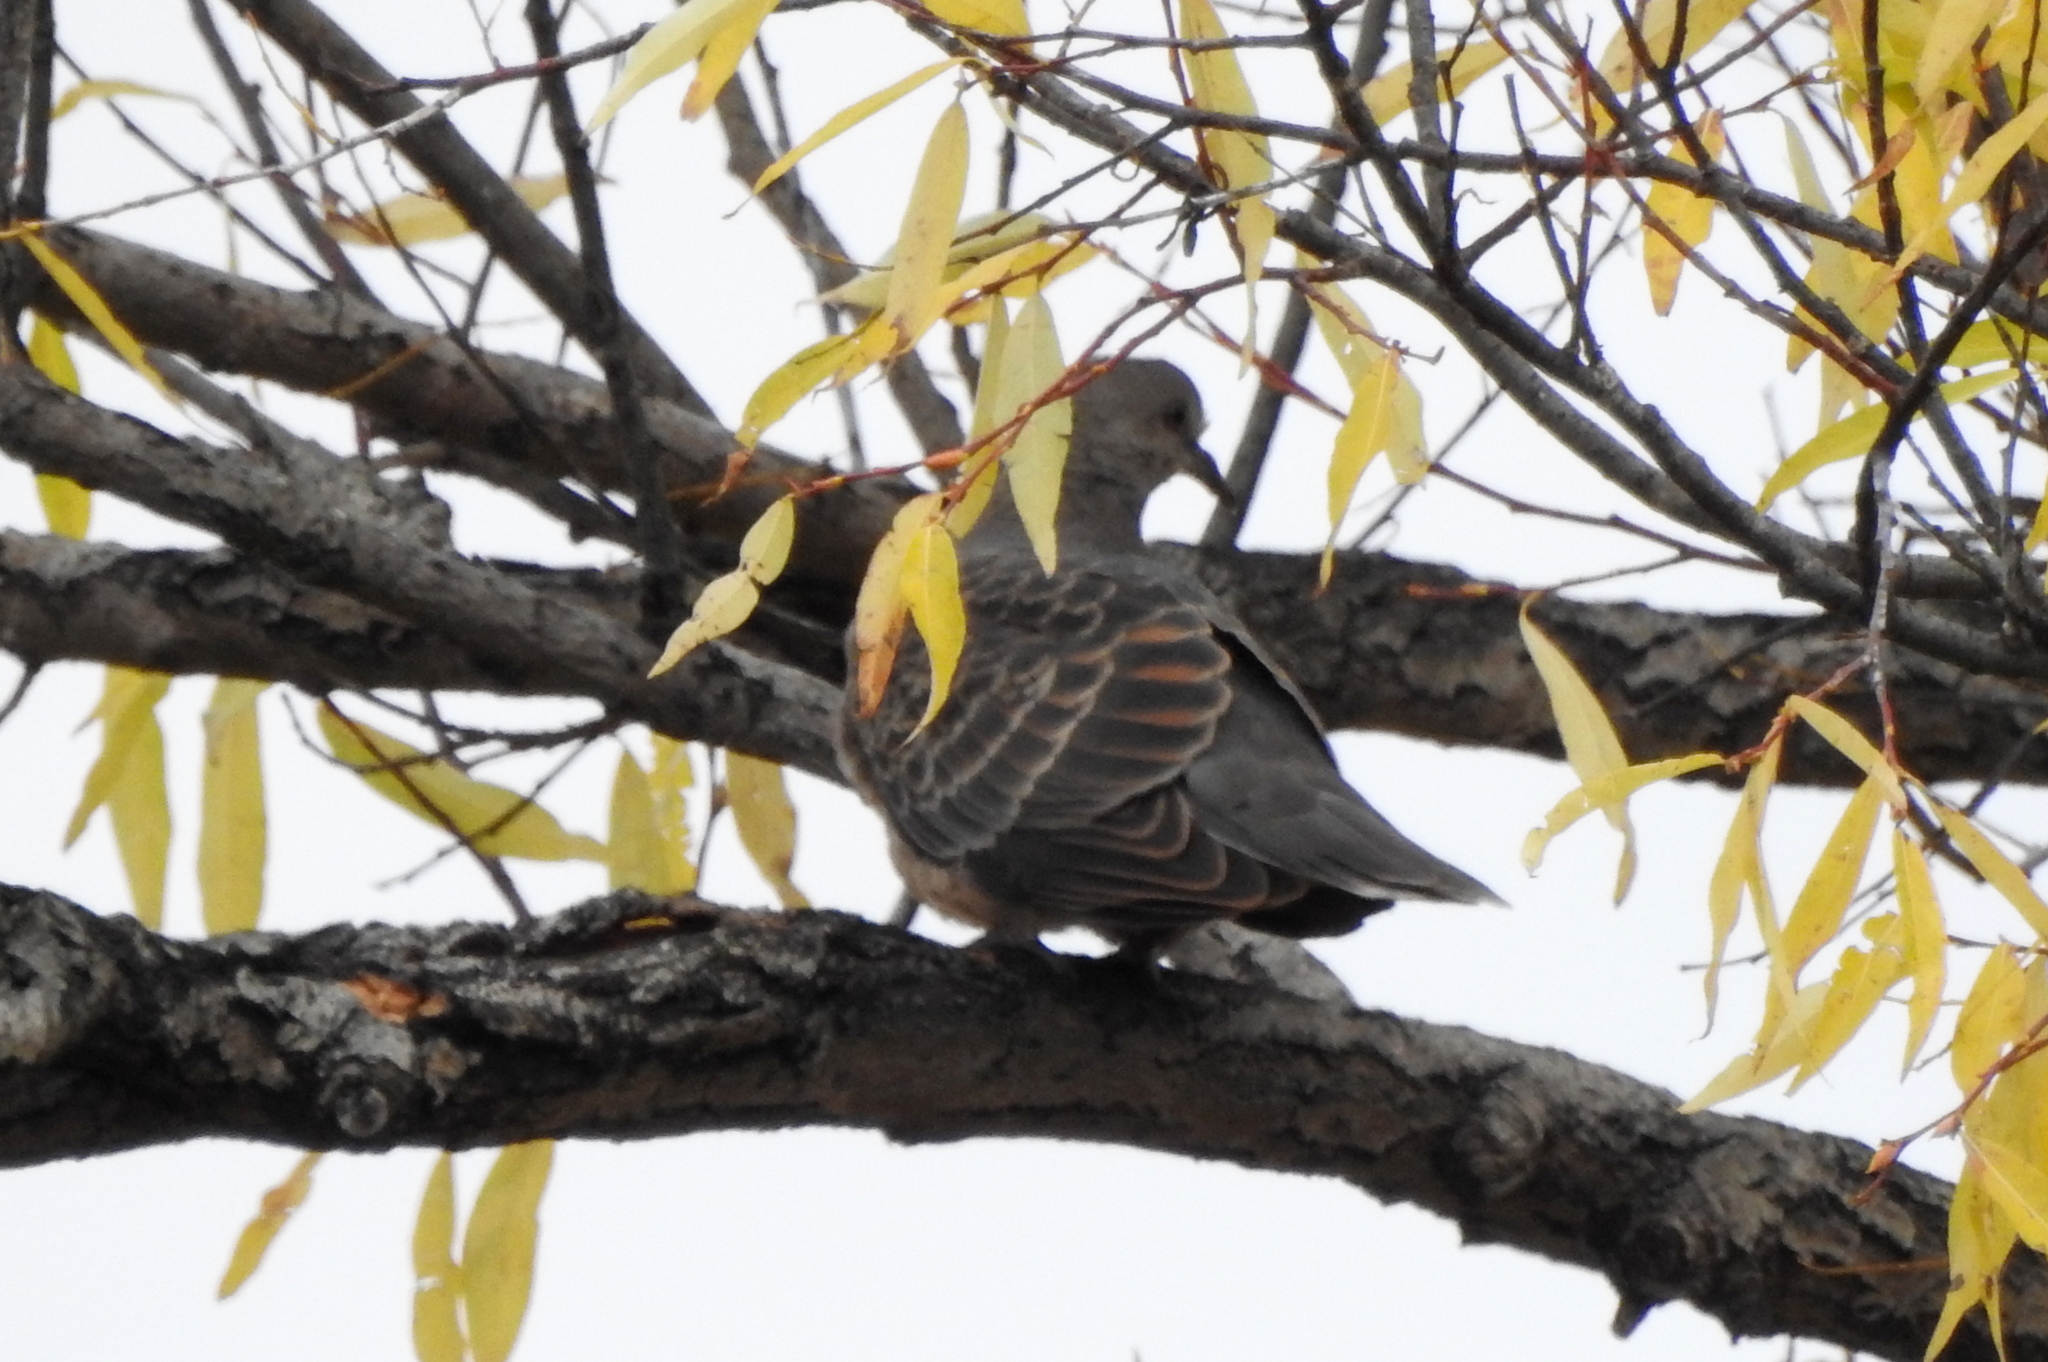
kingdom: Animalia
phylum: Chordata
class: Aves
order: Columbiformes
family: Columbidae
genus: Streptopelia
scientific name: Streptopelia orientalis
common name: Oriental turtle dove
